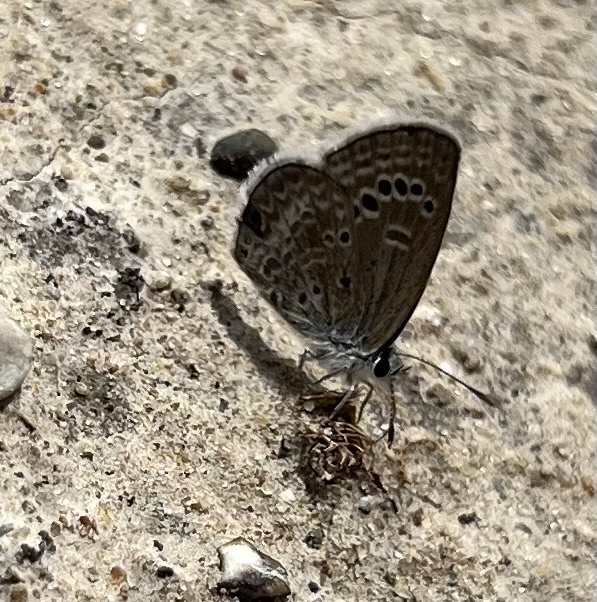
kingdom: Animalia
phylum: Arthropoda
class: Insecta
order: Lepidoptera
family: Lycaenidae
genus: Echinargus
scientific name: Echinargus isola
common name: Reakirt's blue
